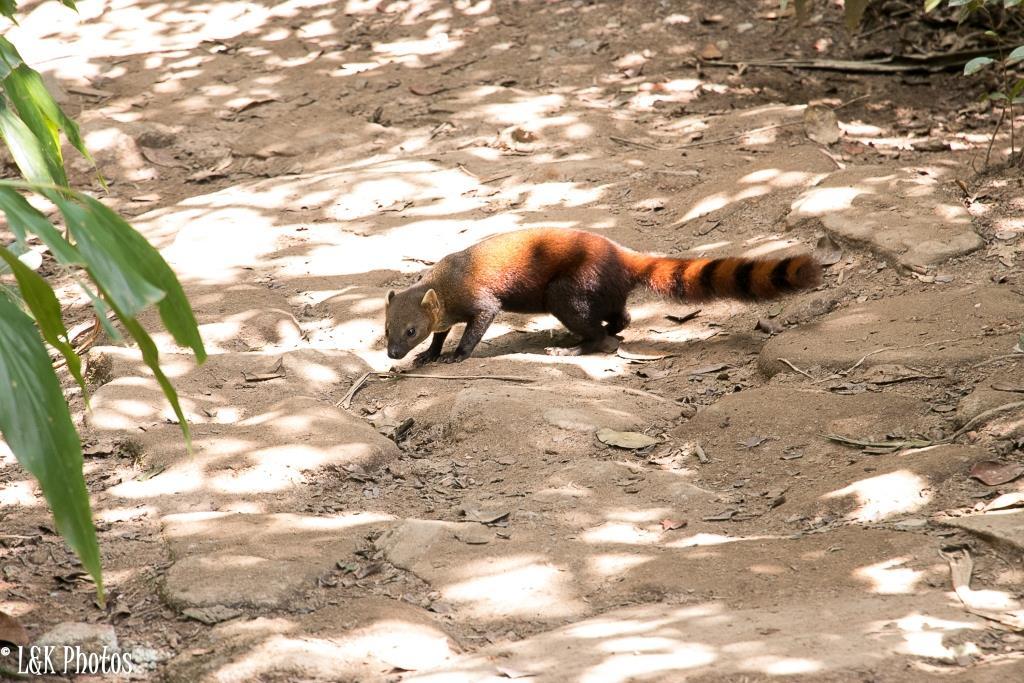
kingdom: Animalia
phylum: Chordata
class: Mammalia
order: Carnivora
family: Eupleridae
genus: Galidia
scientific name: Galidia elegans
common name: Ring-tailed mongoose
